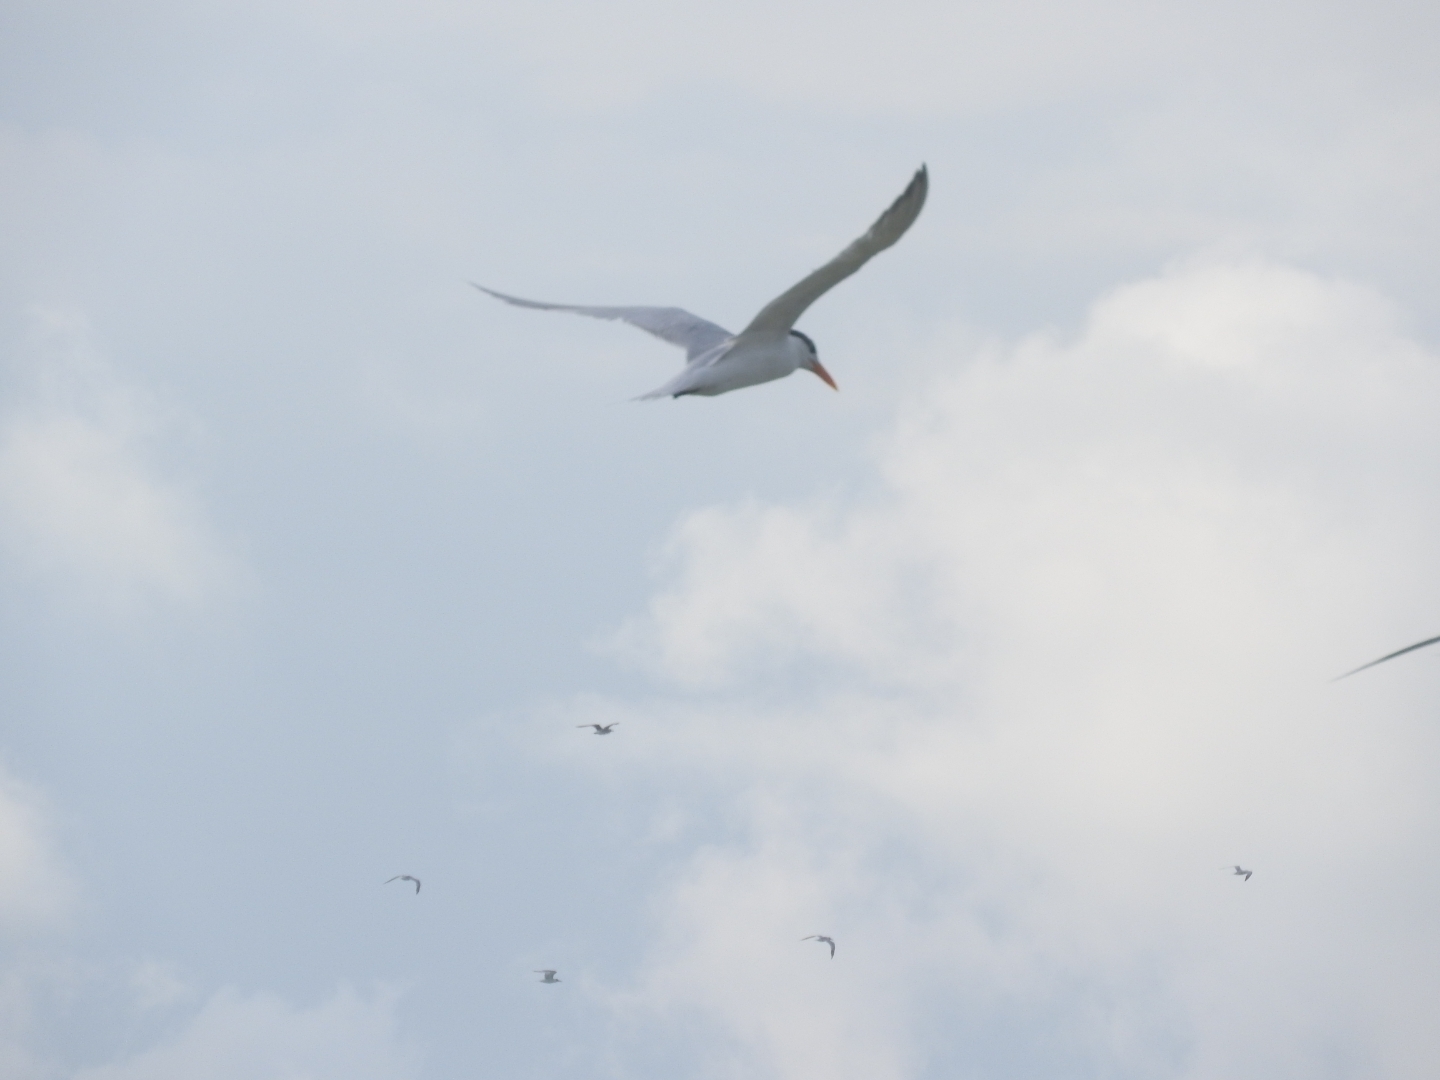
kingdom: Animalia
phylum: Chordata
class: Aves
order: Charadriiformes
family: Laridae
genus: Thalasseus
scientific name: Thalasseus maximus
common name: Royal tern
